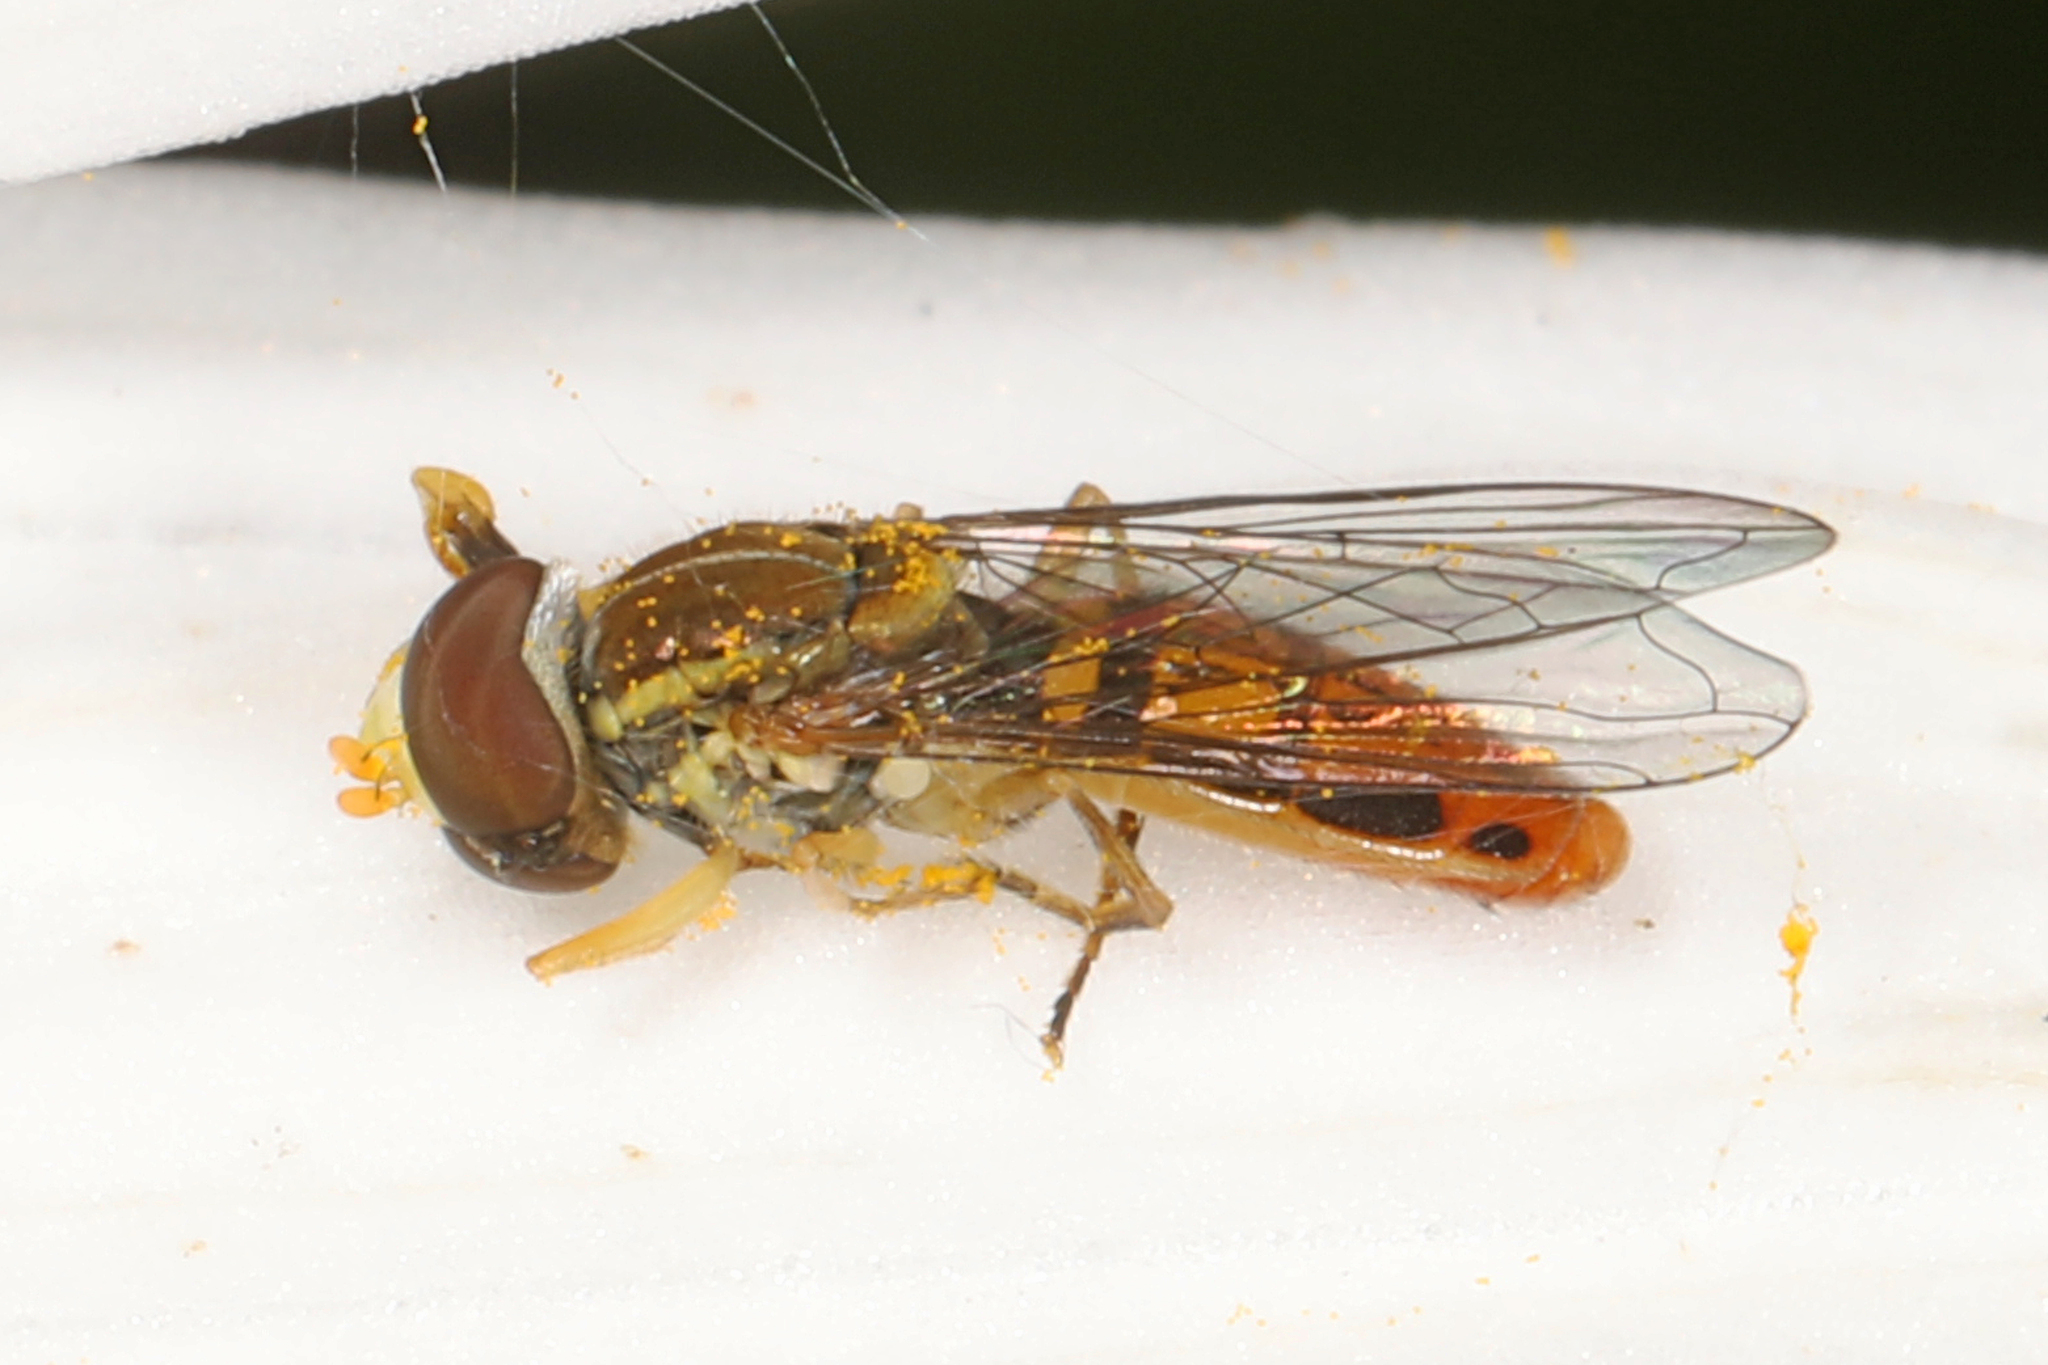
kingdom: Animalia
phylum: Arthropoda
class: Insecta
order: Diptera
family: Syrphidae
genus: Toxomerus
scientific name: Toxomerus marginatus
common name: Syrphid fly
